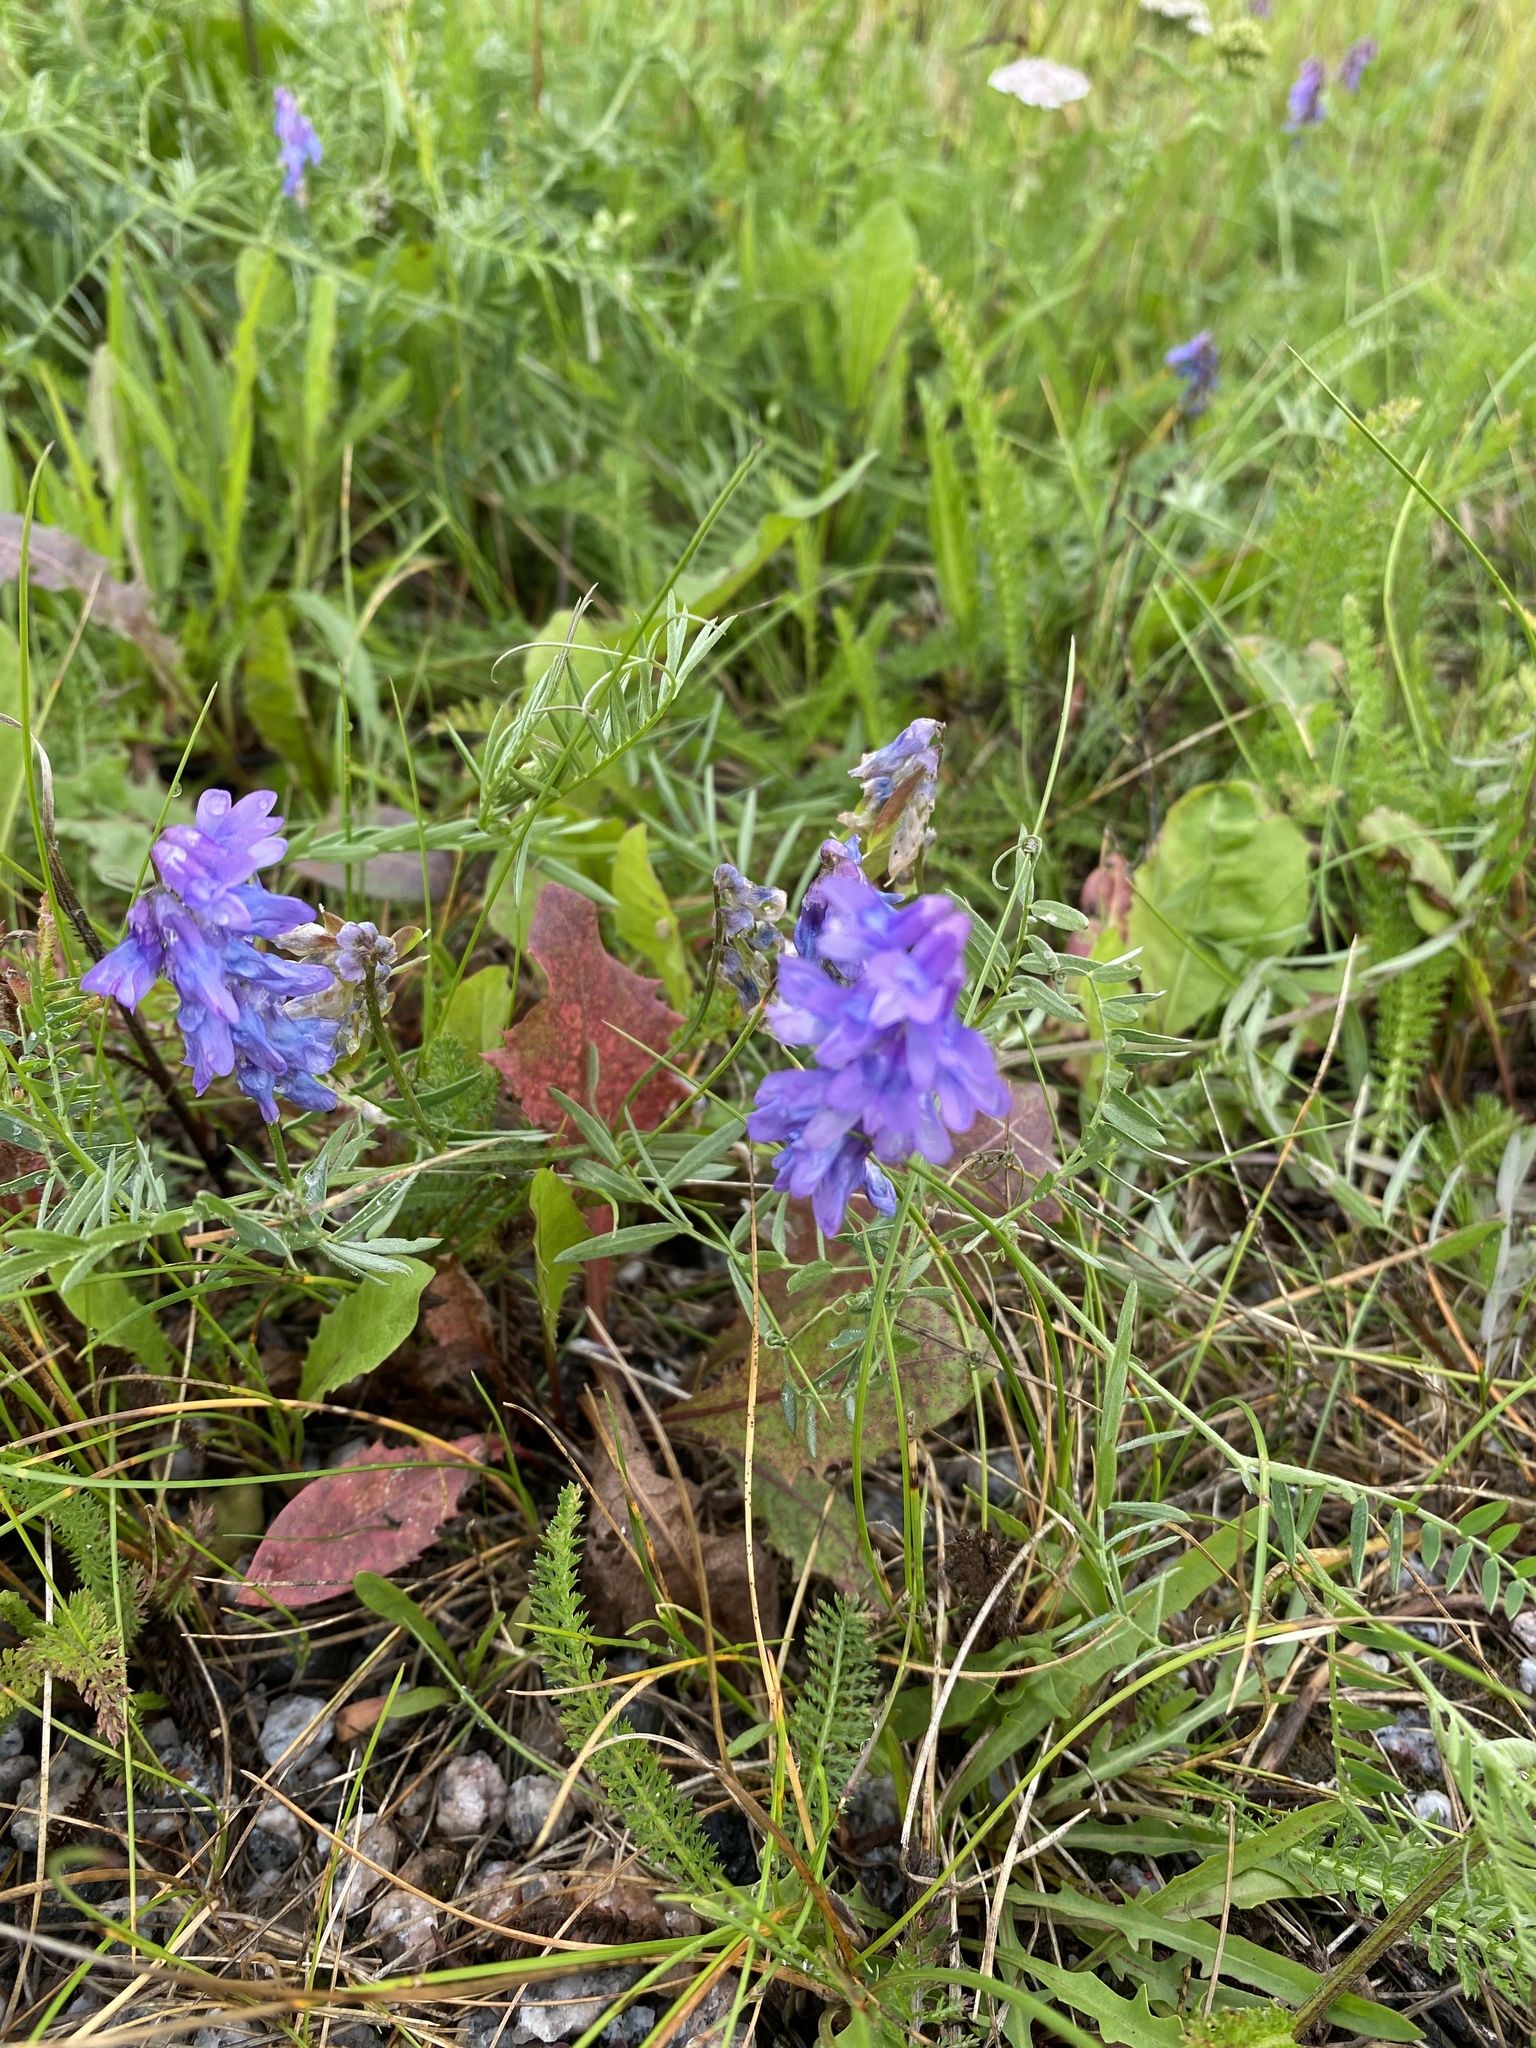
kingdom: Plantae
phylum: Tracheophyta
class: Magnoliopsida
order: Fabales
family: Fabaceae
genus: Vicia
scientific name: Vicia cracca
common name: Bird vetch
